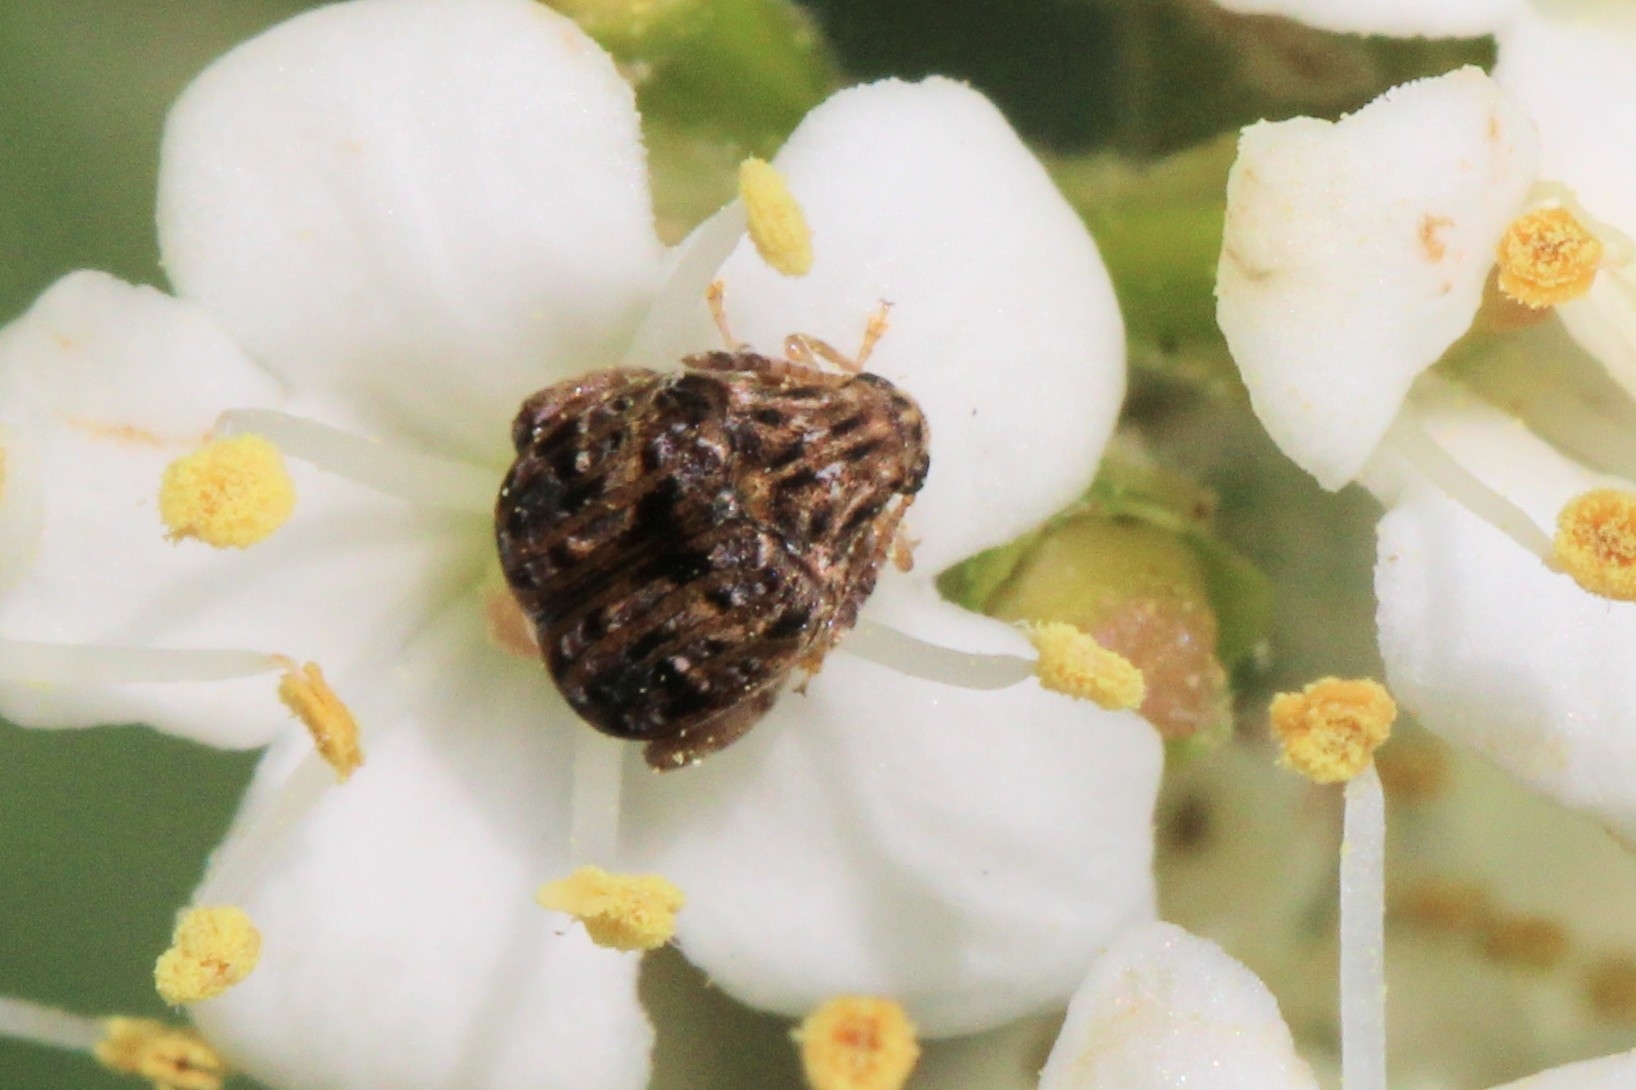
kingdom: Animalia
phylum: Arthropoda
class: Insecta
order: Coleoptera
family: Chrysomelidae
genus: Gibbobruchus
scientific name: Gibbobruchus mimus
